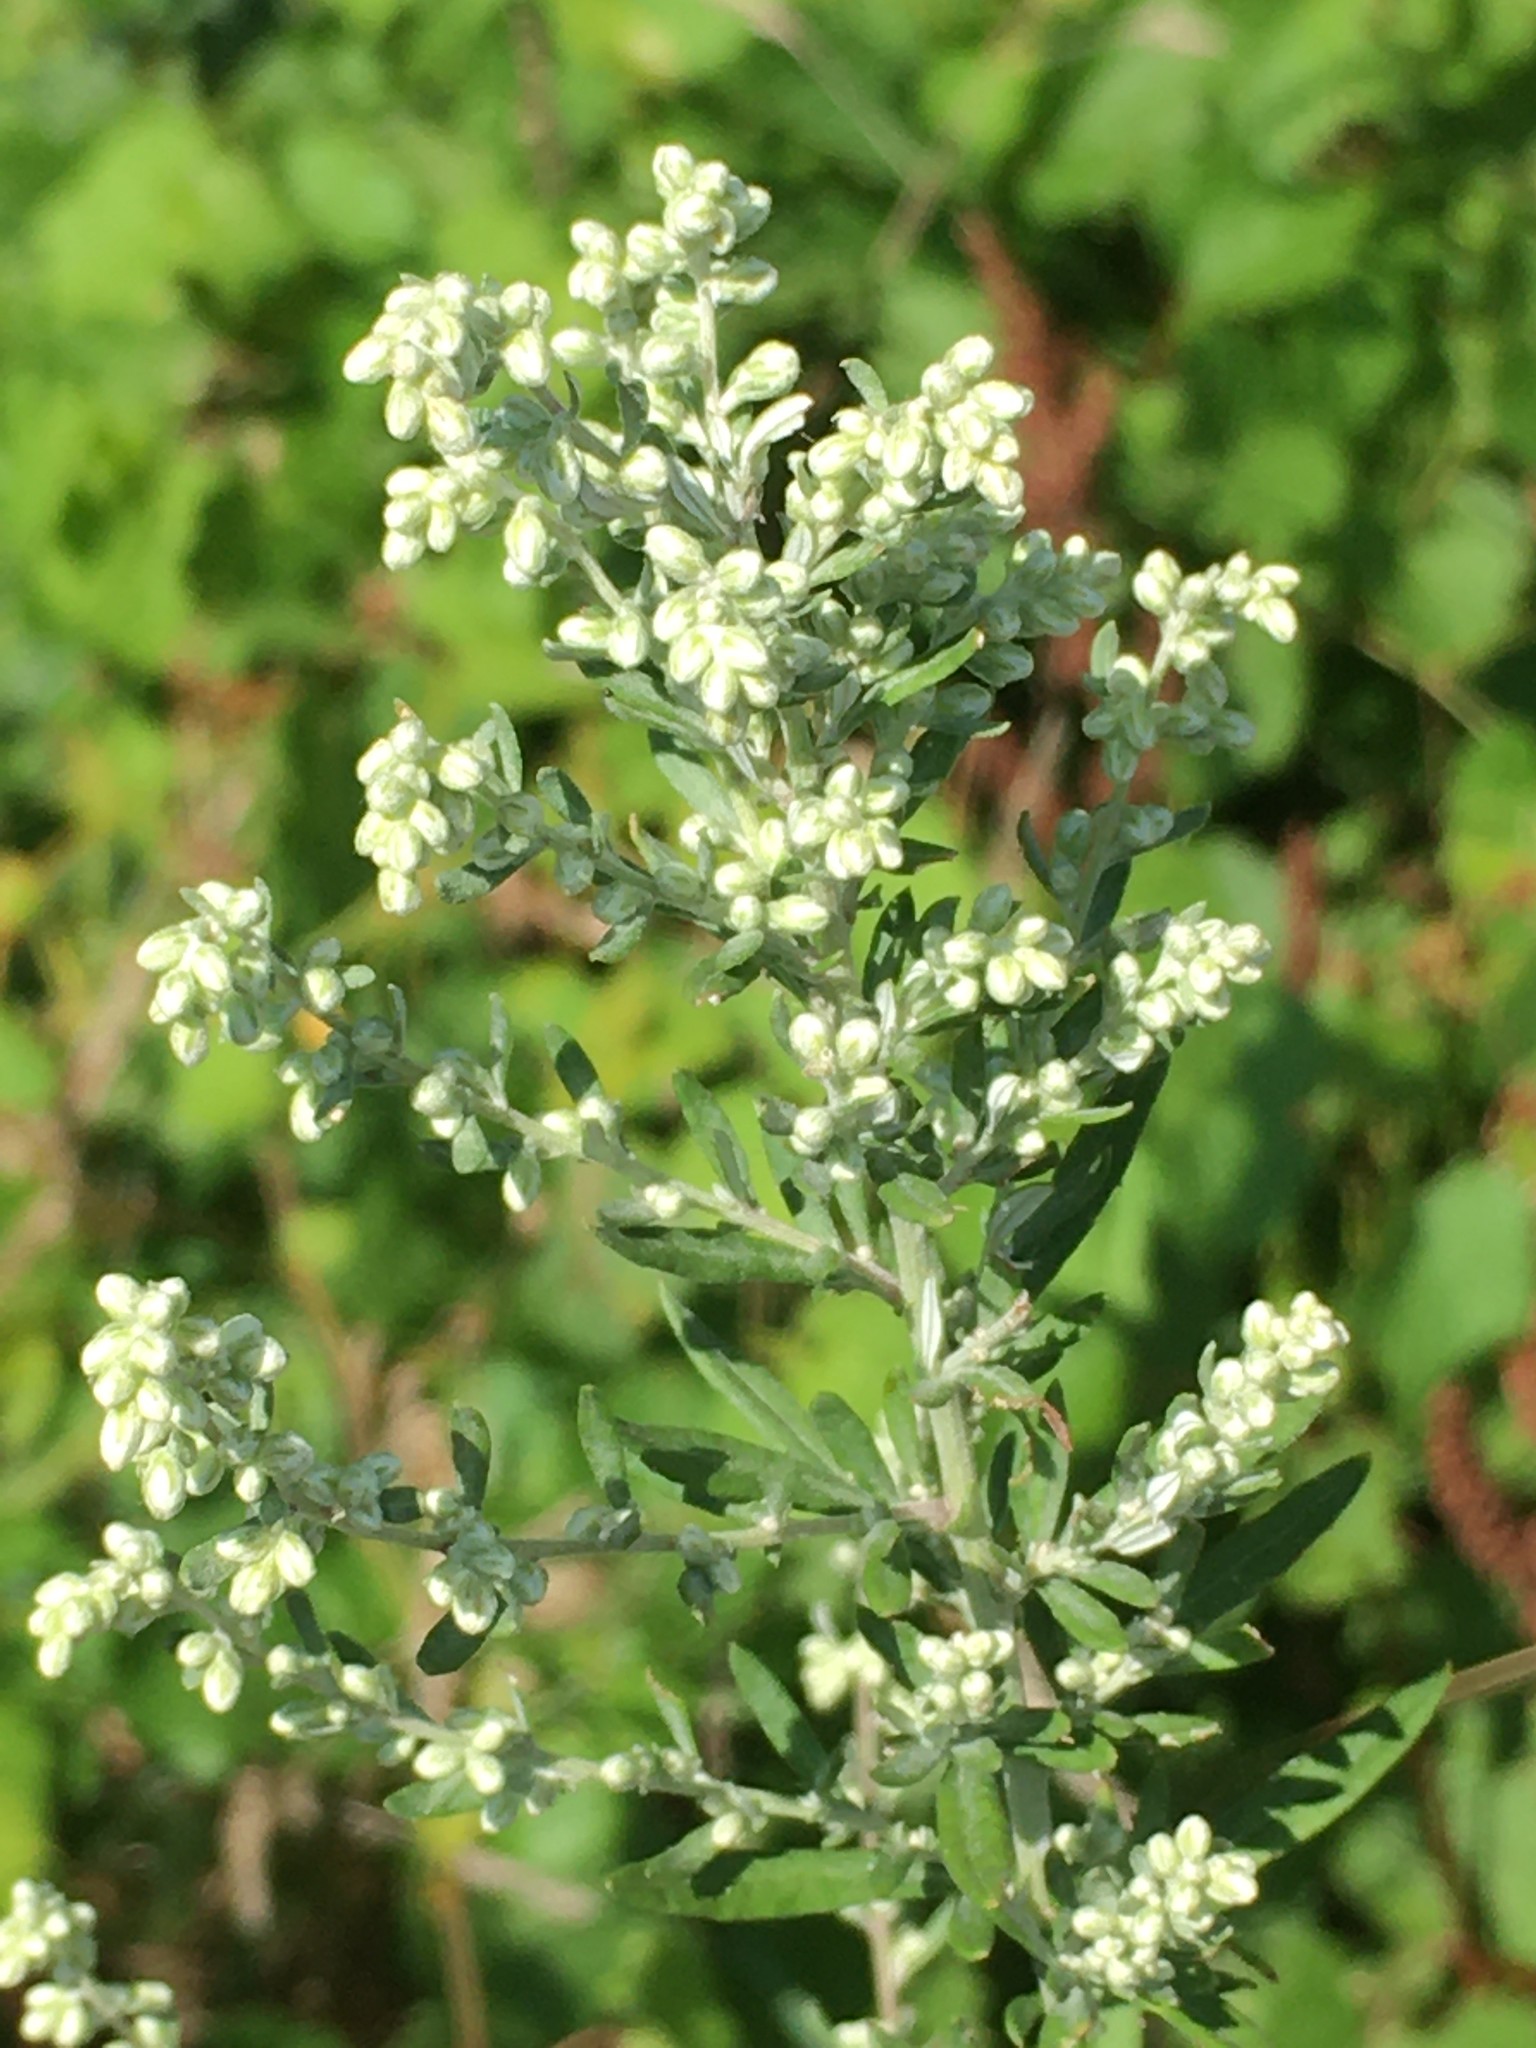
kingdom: Plantae
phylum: Tracheophyta
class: Magnoliopsida
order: Asterales
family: Asteraceae
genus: Artemisia
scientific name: Artemisia vulgaris
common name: Mugwort
